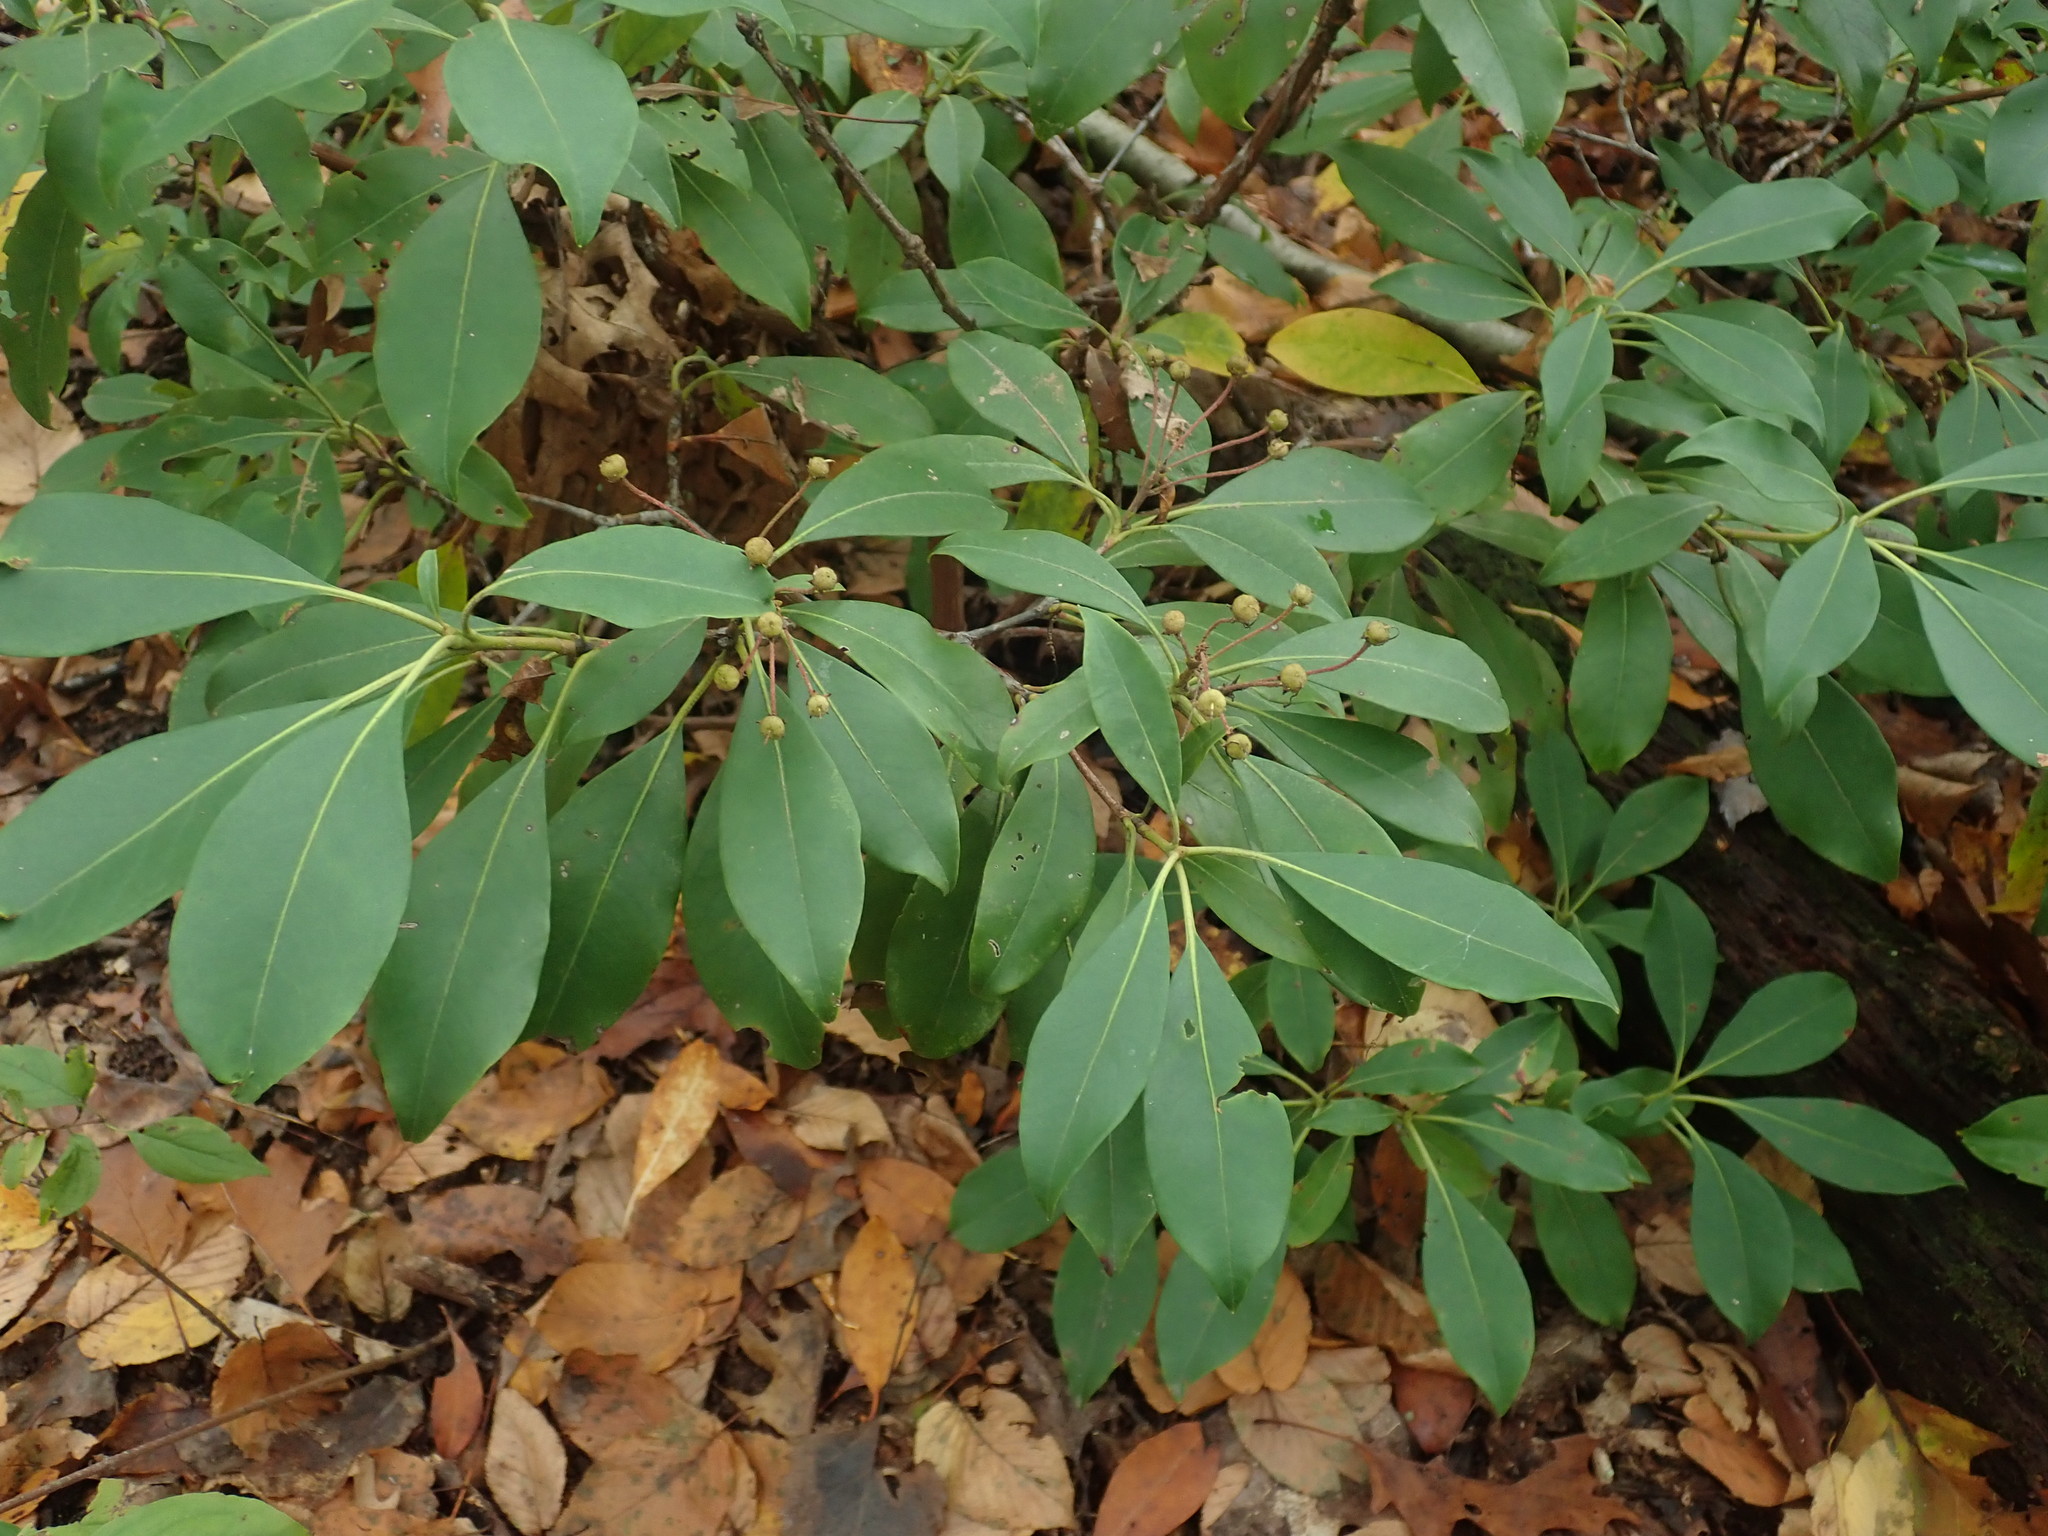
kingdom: Plantae
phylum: Tracheophyta
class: Magnoliopsida
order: Ericales
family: Ericaceae
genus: Kalmia
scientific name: Kalmia latifolia
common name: Mountain-laurel
